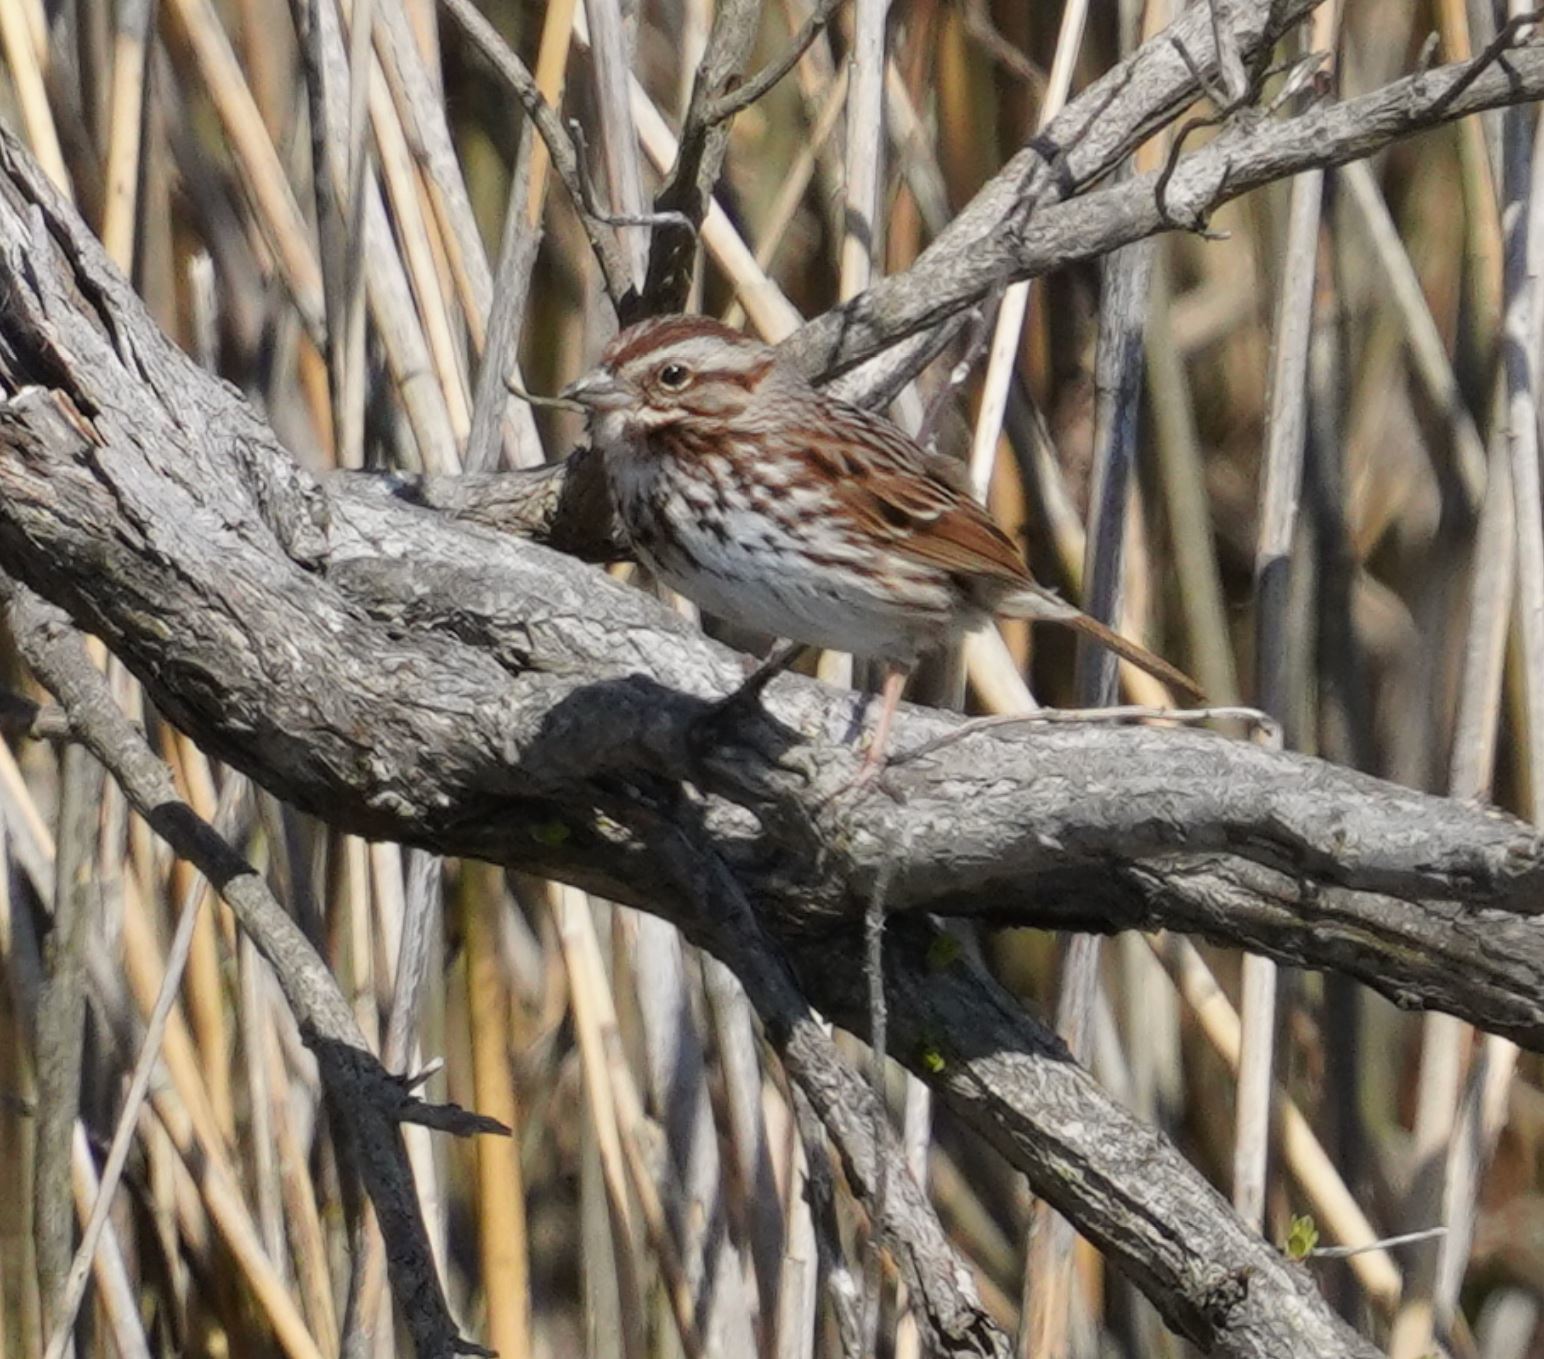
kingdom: Animalia
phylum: Chordata
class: Aves
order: Passeriformes
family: Passerellidae
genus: Melospiza
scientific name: Melospiza melodia
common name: Song sparrow
